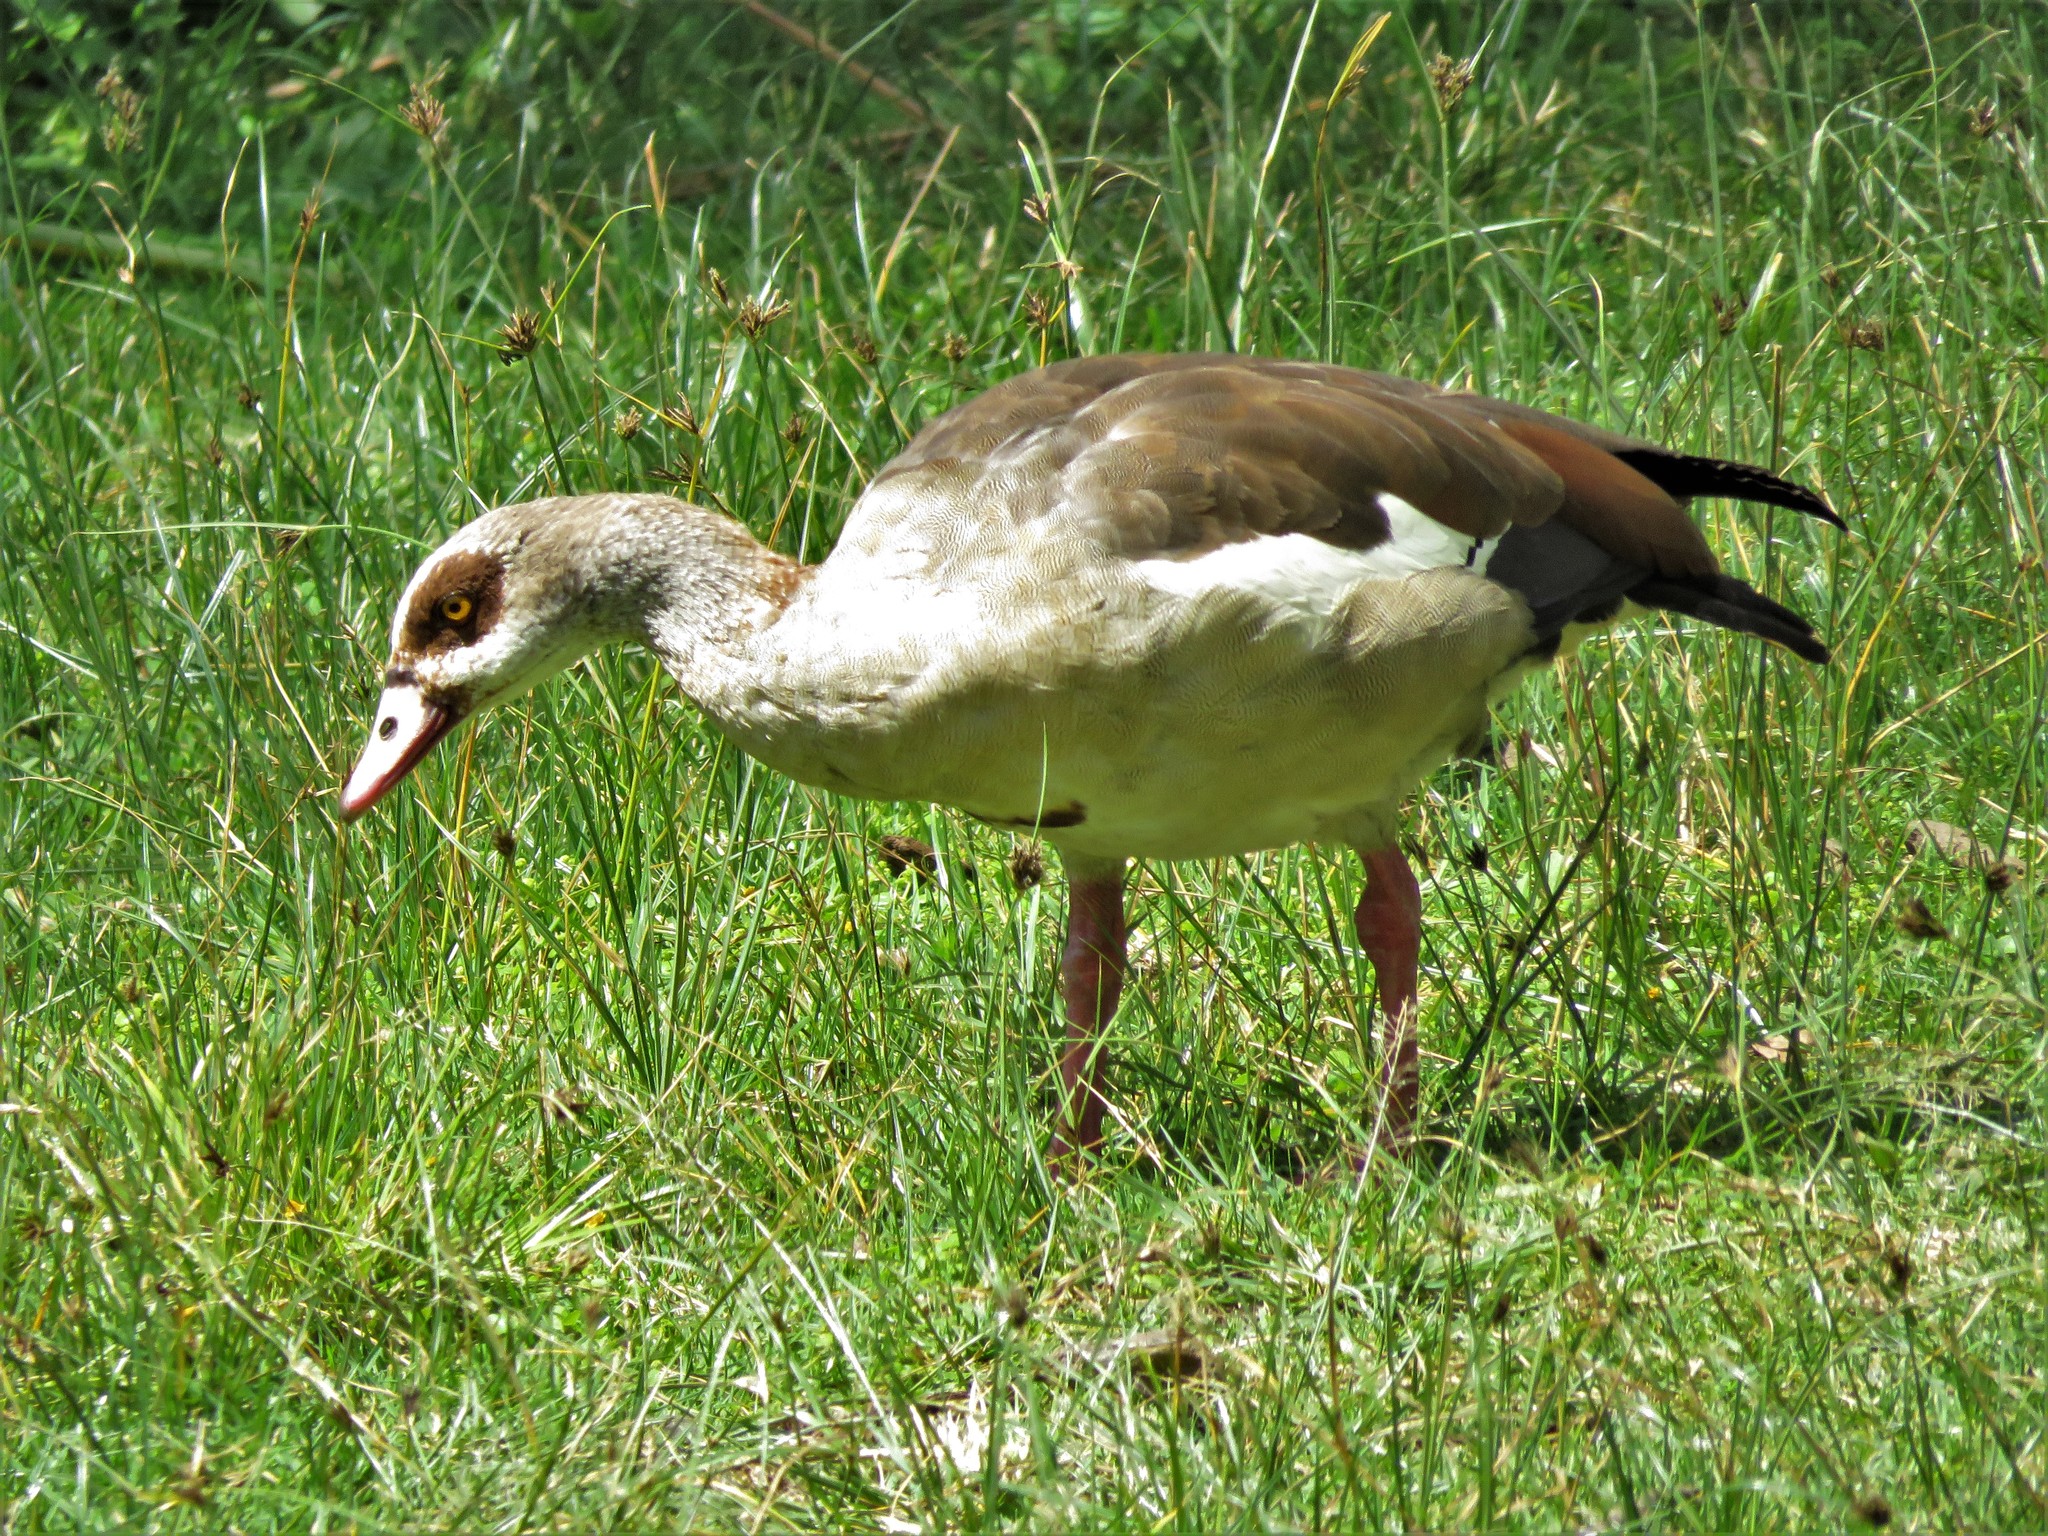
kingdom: Animalia
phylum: Chordata
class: Aves
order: Anseriformes
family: Anatidae
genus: Alopochen
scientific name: Alopochen aegyptiaca
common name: Egyptian goose
